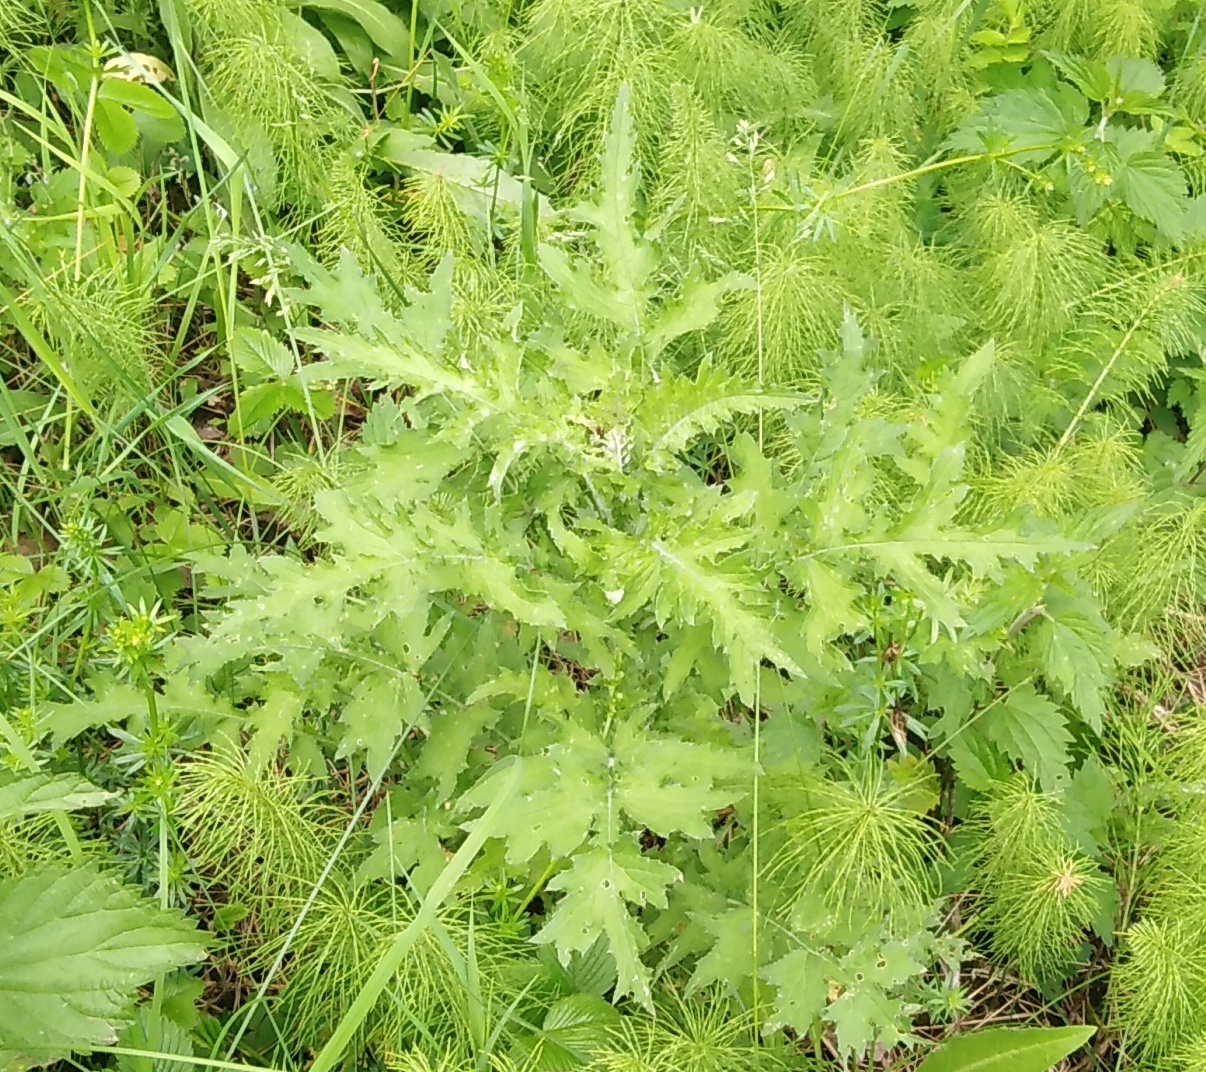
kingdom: Plantae
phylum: Tracheophyta
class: Magnoliopsida
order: Asterales
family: Asteraceae
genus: Carduus
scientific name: Carduus crispus
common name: Welted thistle
